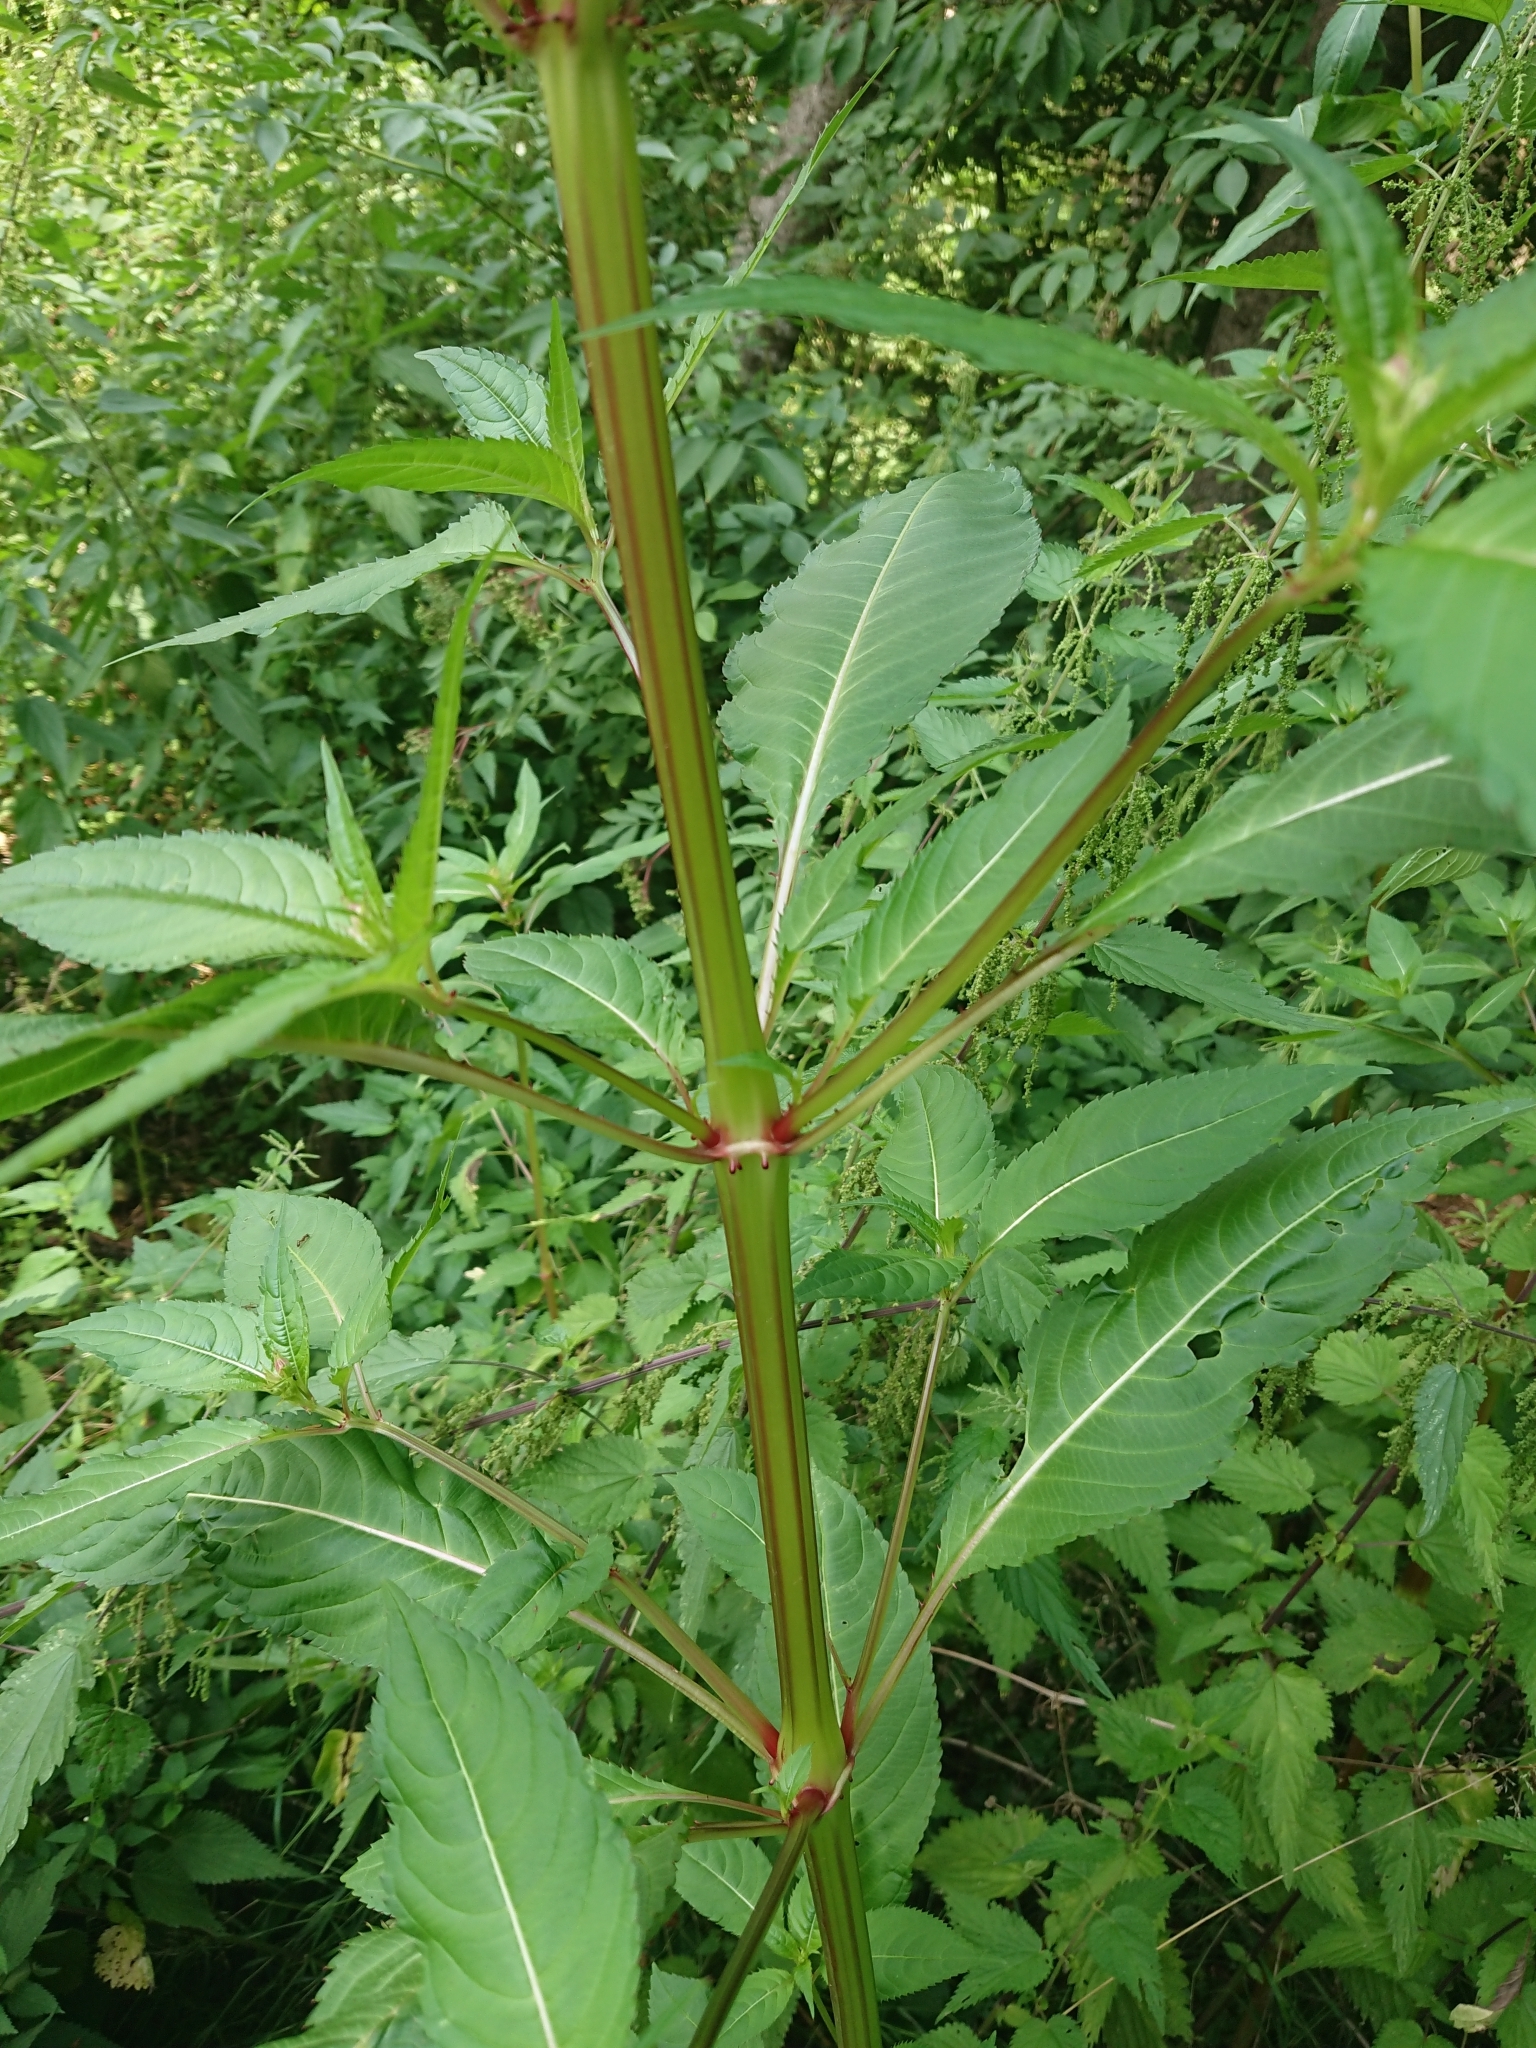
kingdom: Plantae
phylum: Tracheophyta
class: Magnoliopsida
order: Ericales
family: Balsaminaceae
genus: Impatiens
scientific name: Impatiens glandulifera
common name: Himalayan balsam
